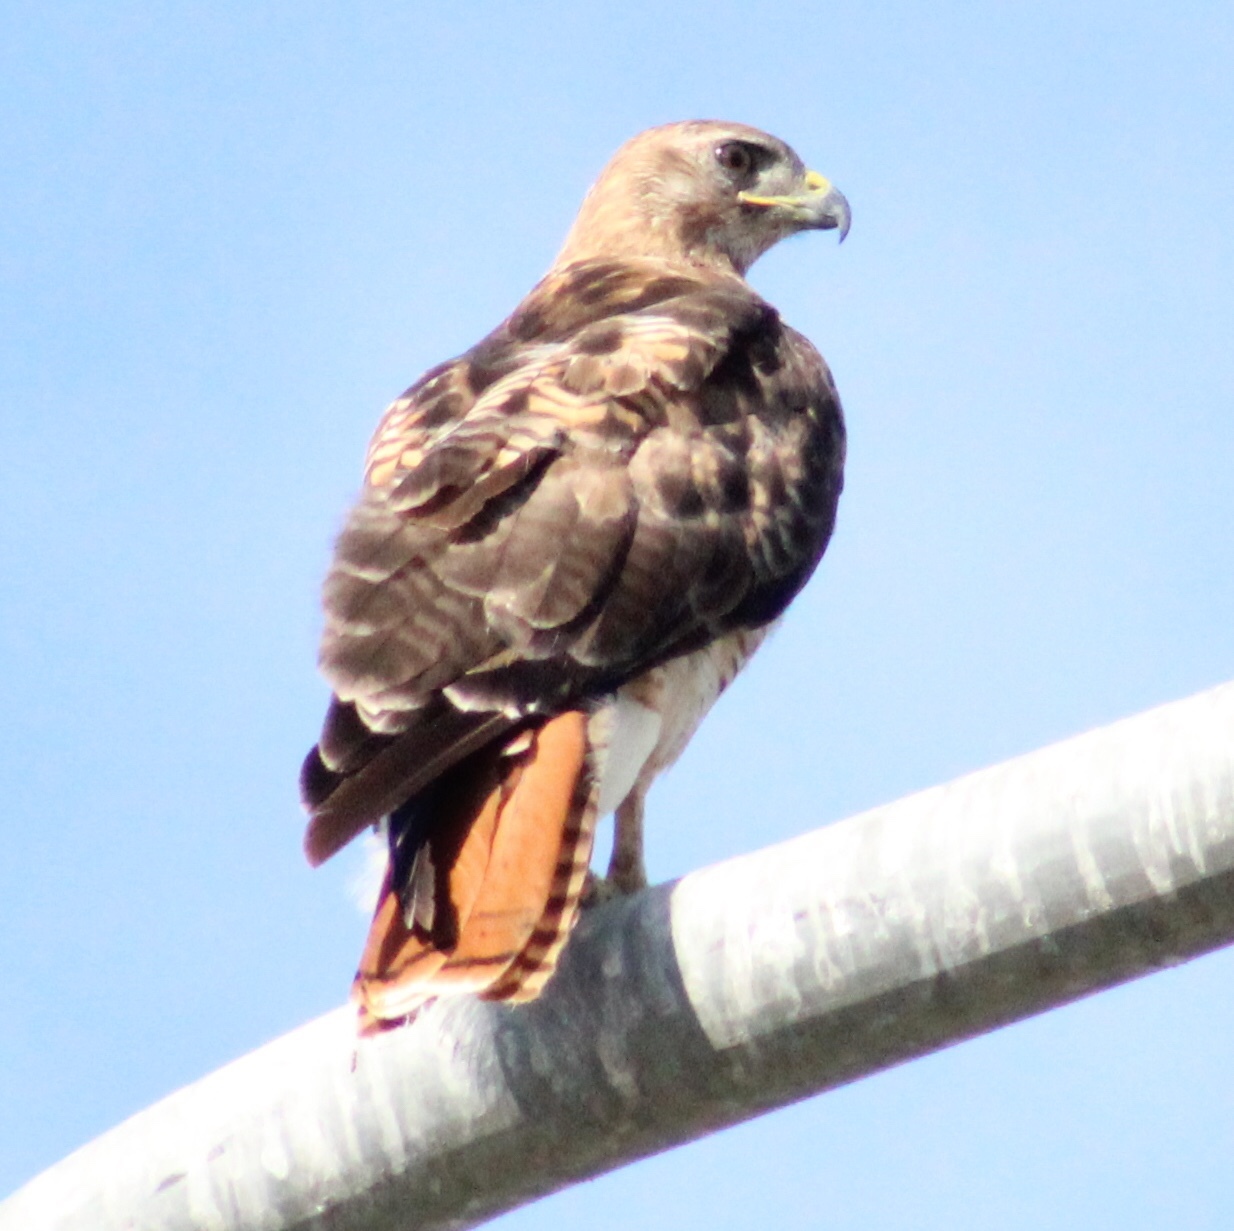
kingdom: Animalia
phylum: Chordata
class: Aves
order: Accipitriformes
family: Accipitridae
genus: Buteo
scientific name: Buteo jamaicensis
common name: Red-tailed hawk
